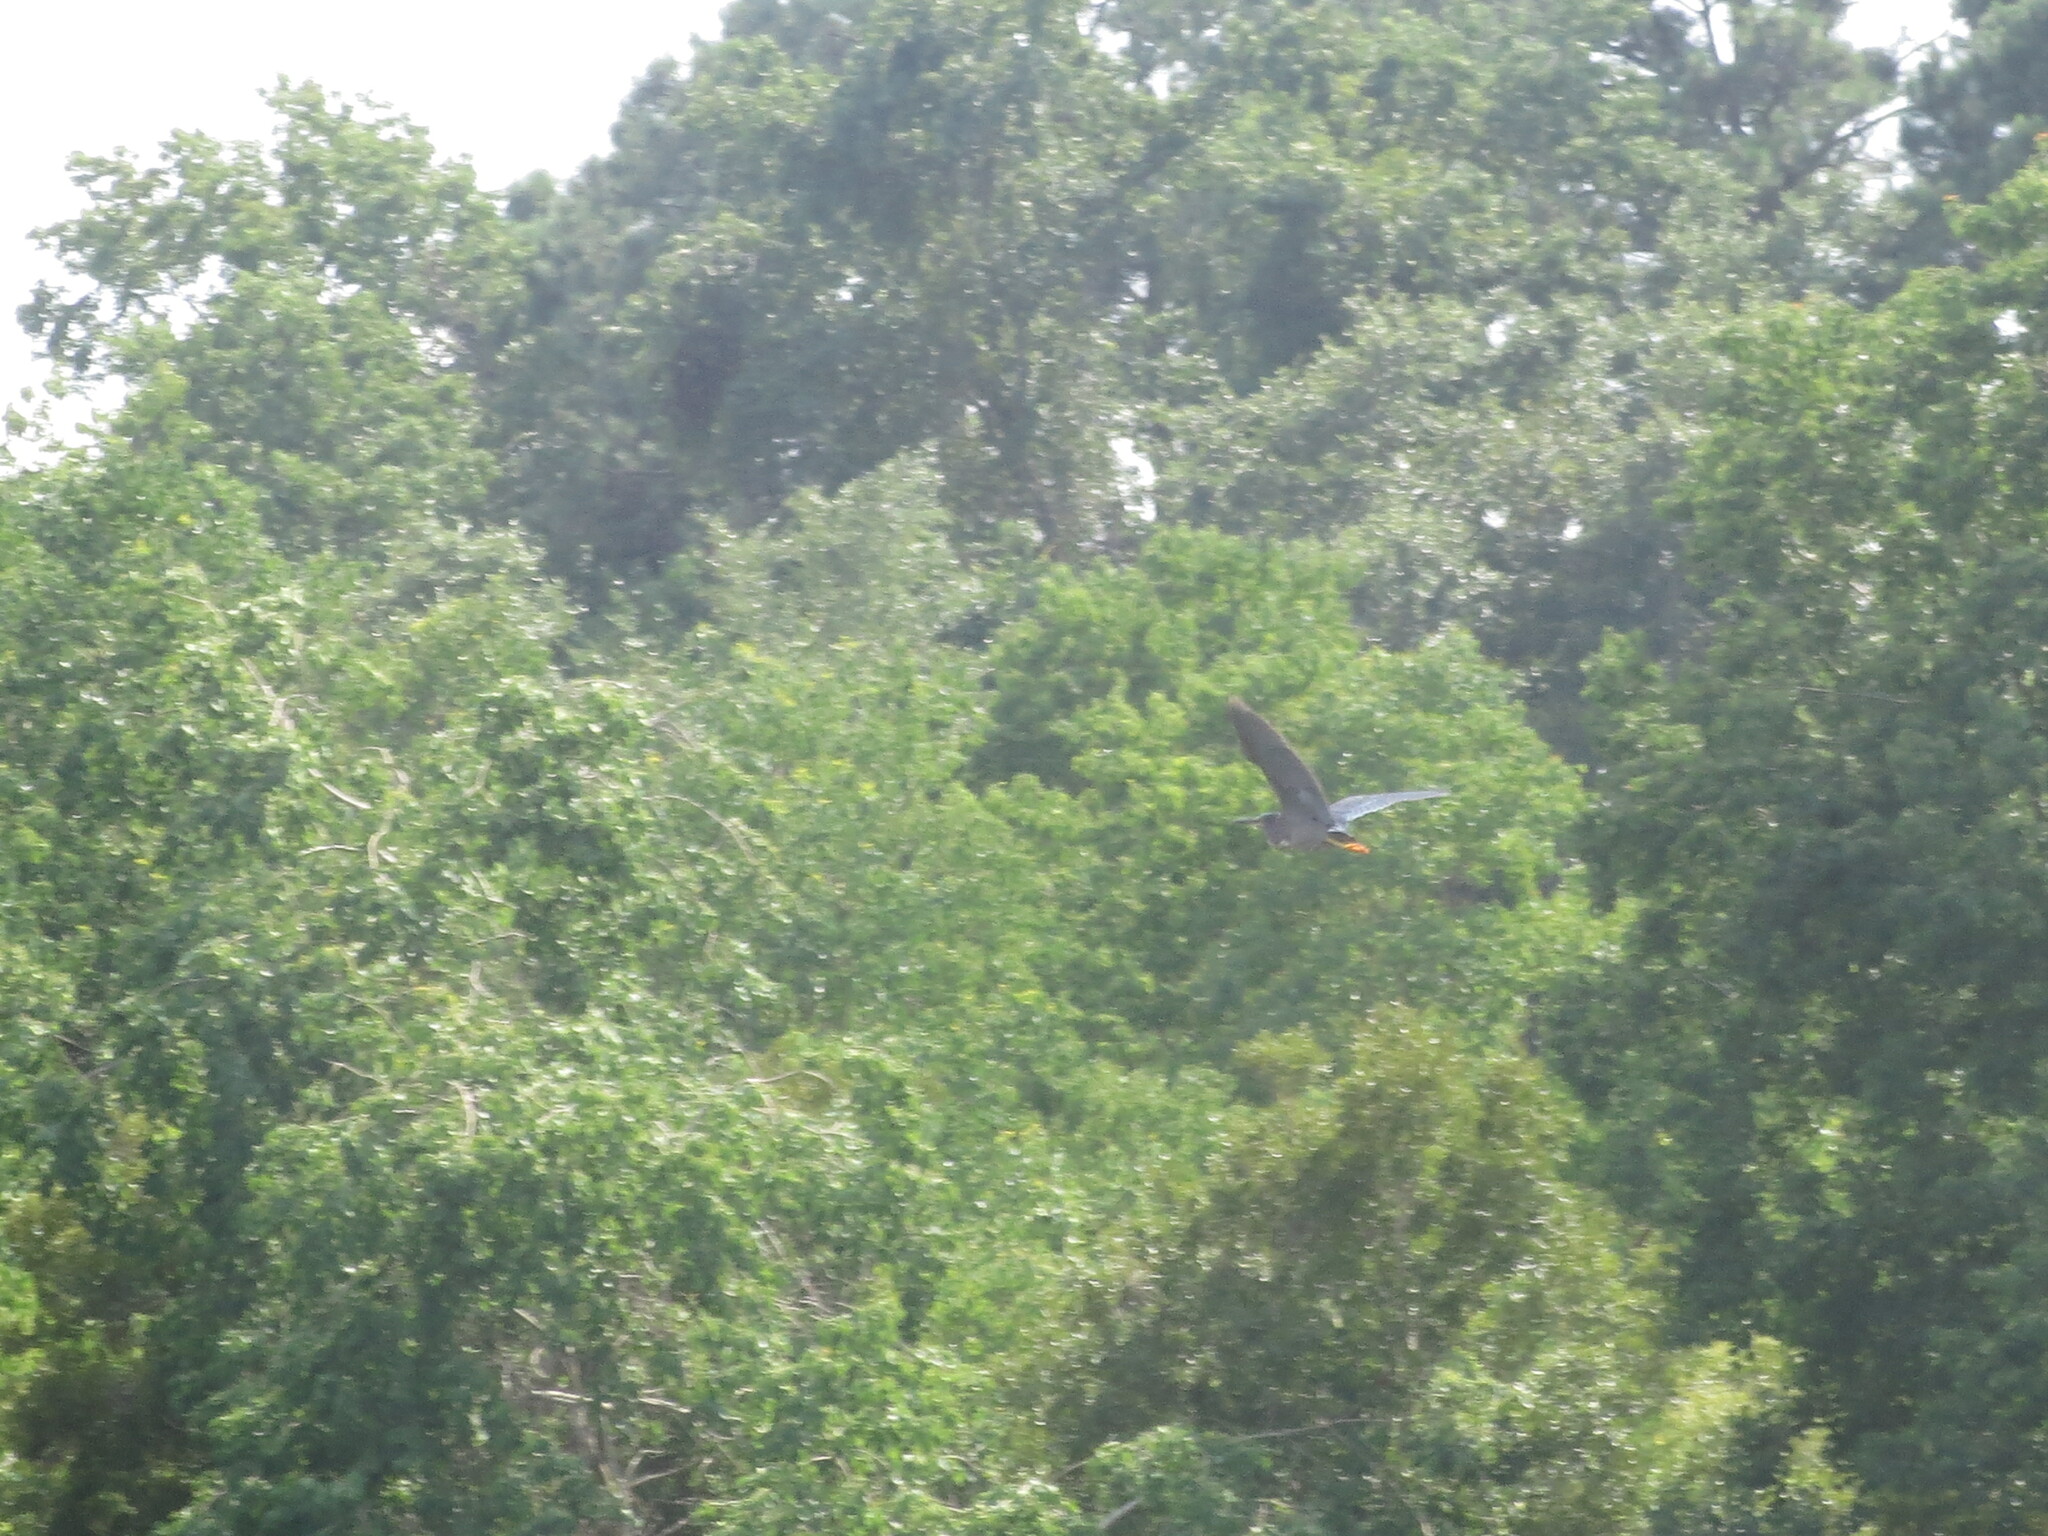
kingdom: Animalia
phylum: Chordata
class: Aves
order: Pelecaniformes
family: Ardeidae
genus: Butorides
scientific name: Butorides virescens
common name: Green heron
